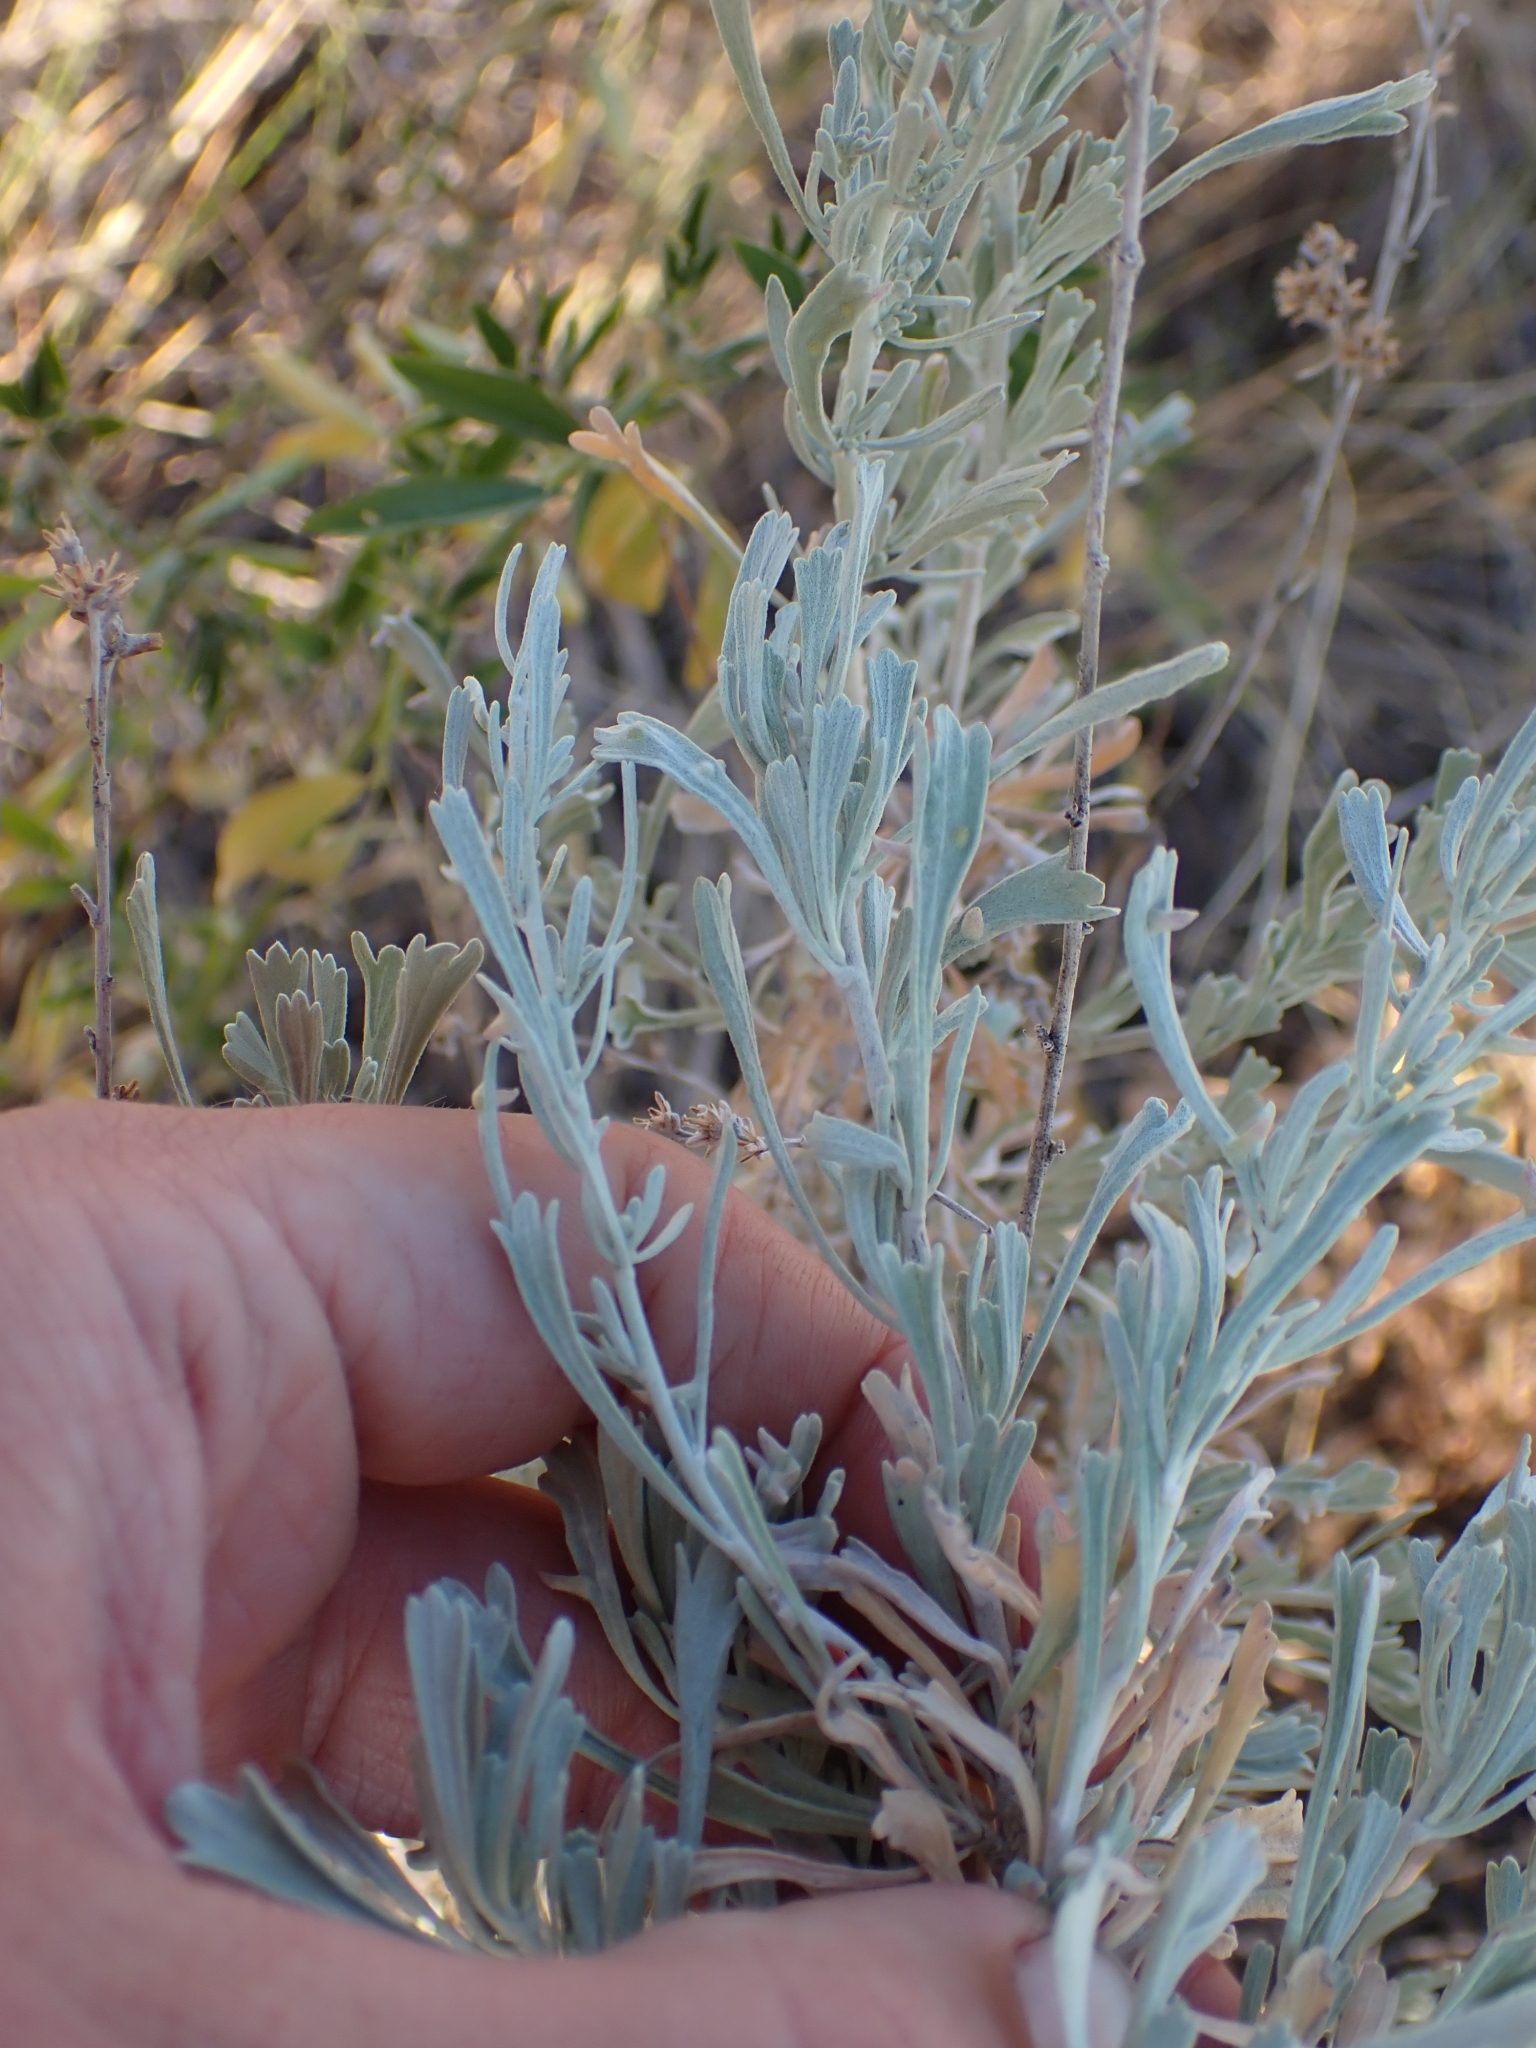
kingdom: Plantae
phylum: Tracheophyta
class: Magnoliopsida
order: Asterales
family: Asteraceae
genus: Artemisia
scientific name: Artemisia tridentata
